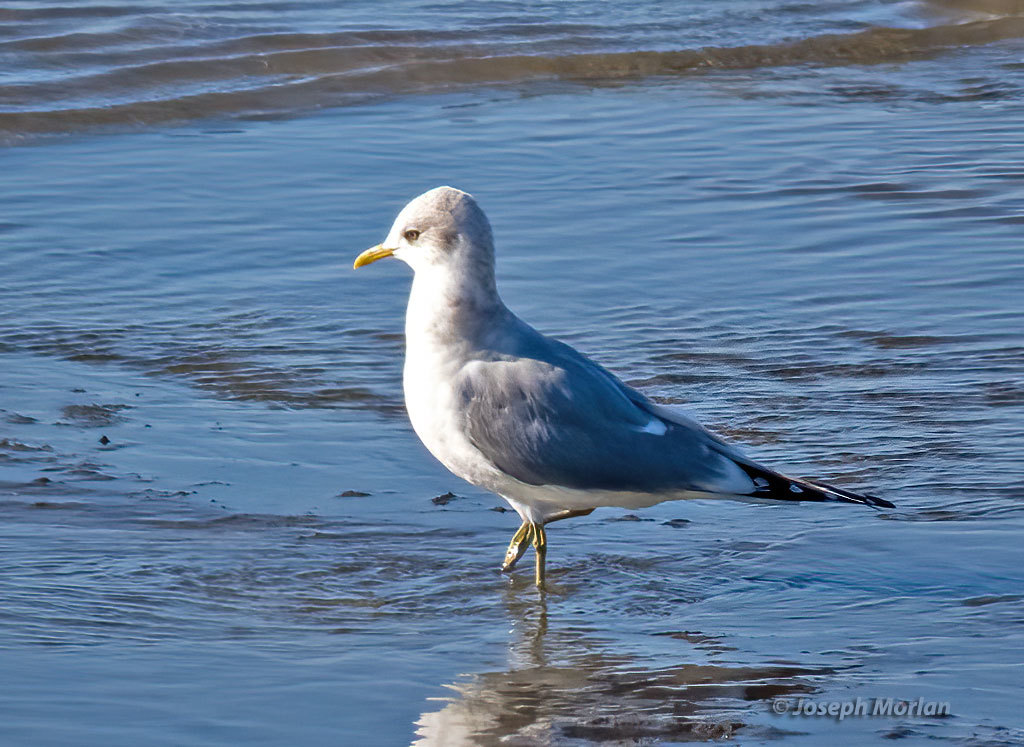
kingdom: Animalia
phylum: Chordata
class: Aves
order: Charadriiformes
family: Laridae
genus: Larus
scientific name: Larus brachyrhynchus
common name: Short-billed gull
